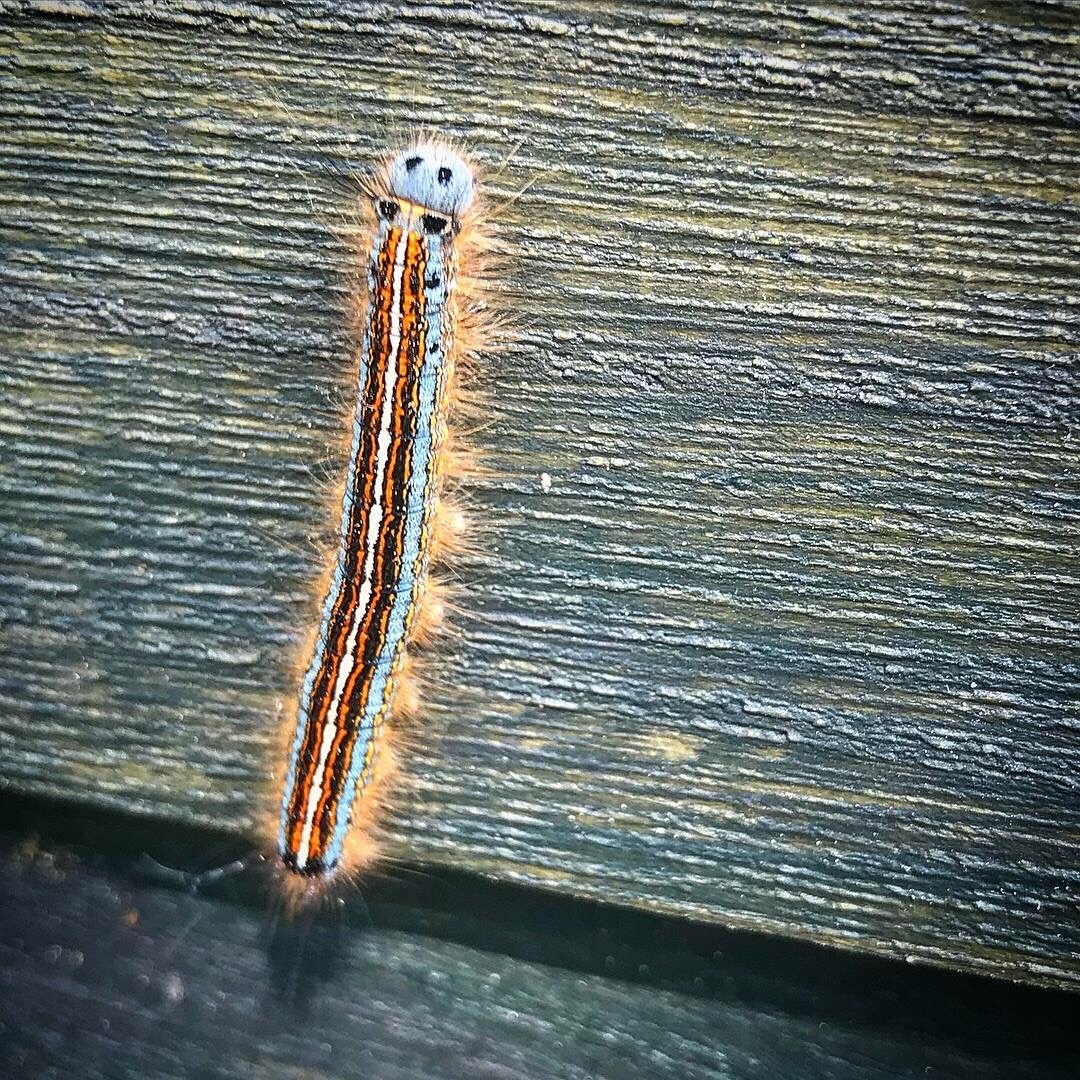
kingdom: Animalia
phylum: Arthropoda
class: Insecta
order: Lepidoptera
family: Lasiocampidae
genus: Malacosoma
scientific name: Malacosoma neustria
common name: The lackey
